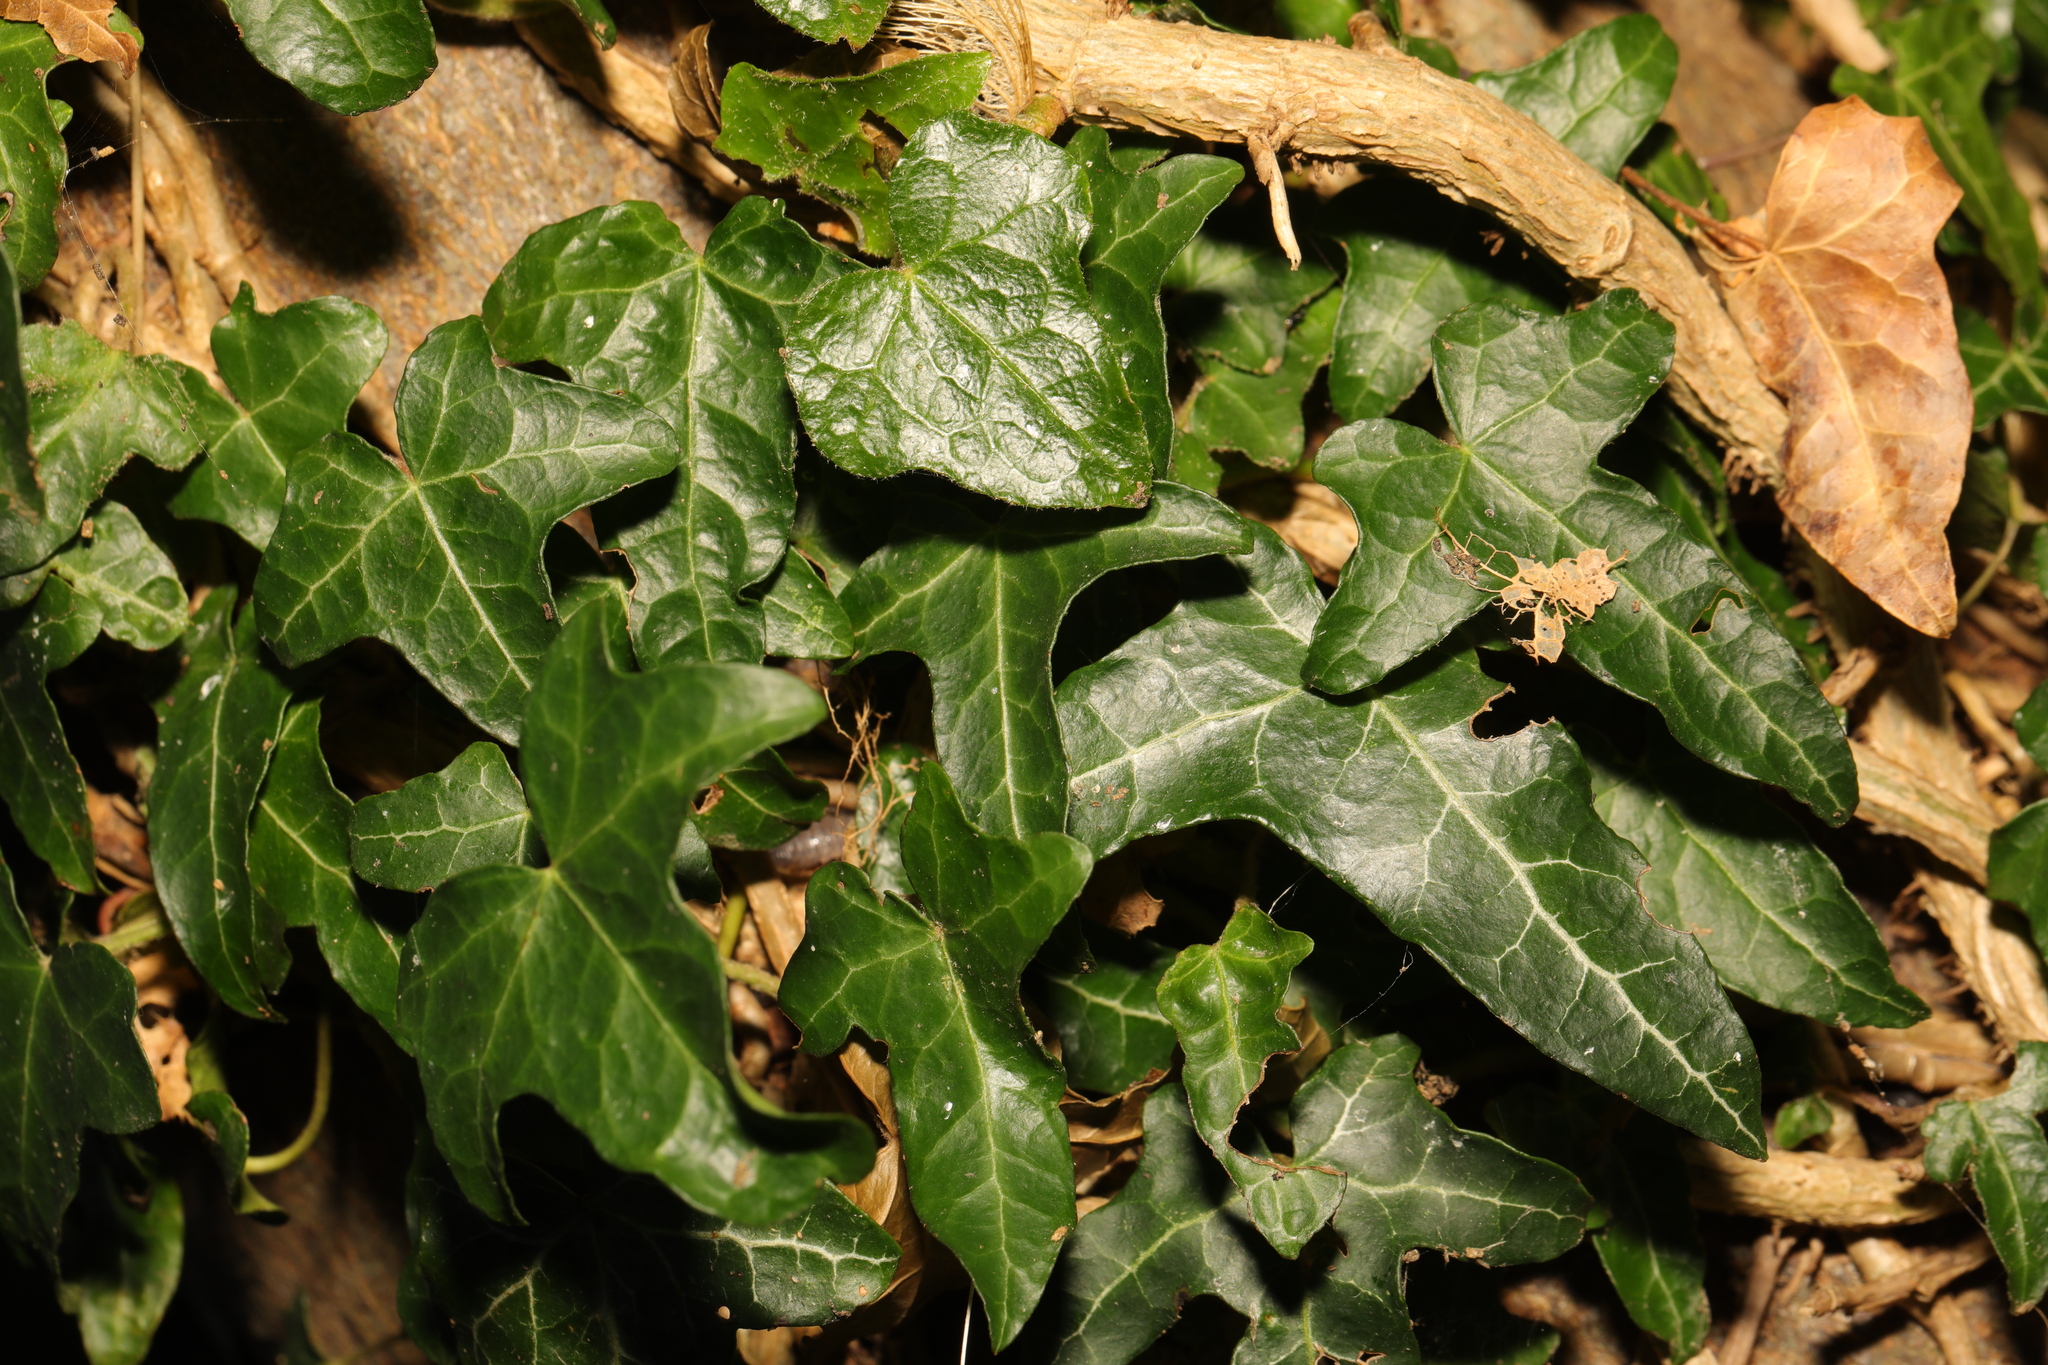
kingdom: Plantae
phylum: Tracheophyta
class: Magnoliopsida
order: Apiales
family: Araliaceae
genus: Hedera
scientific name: Hedera helix
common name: Ivy
